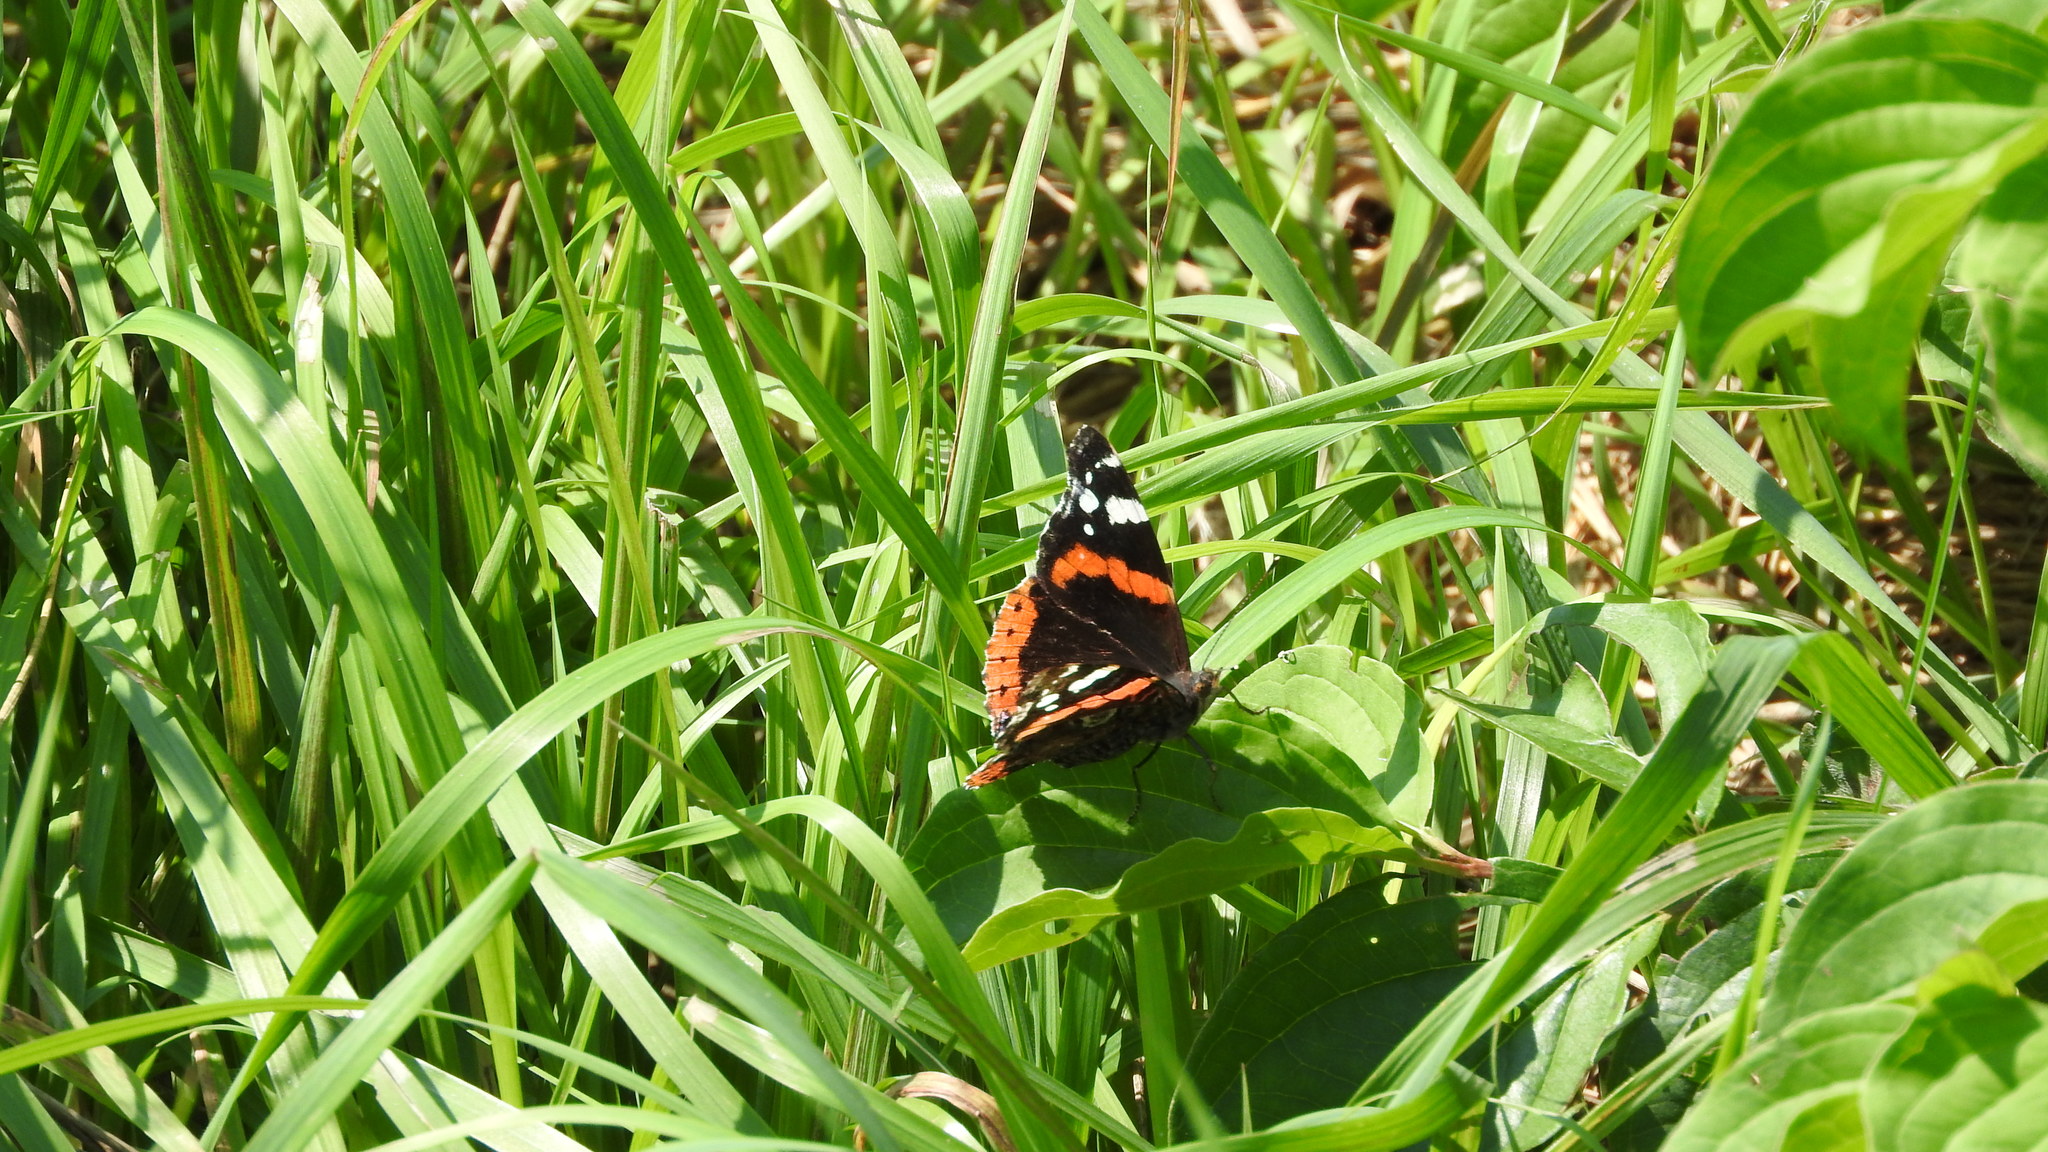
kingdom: Animalia
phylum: Arthropoda
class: Insecta
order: Lepidoptera
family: Nymphalidae
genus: Vanessa
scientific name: Vanessa atalanta
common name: Red admiral
